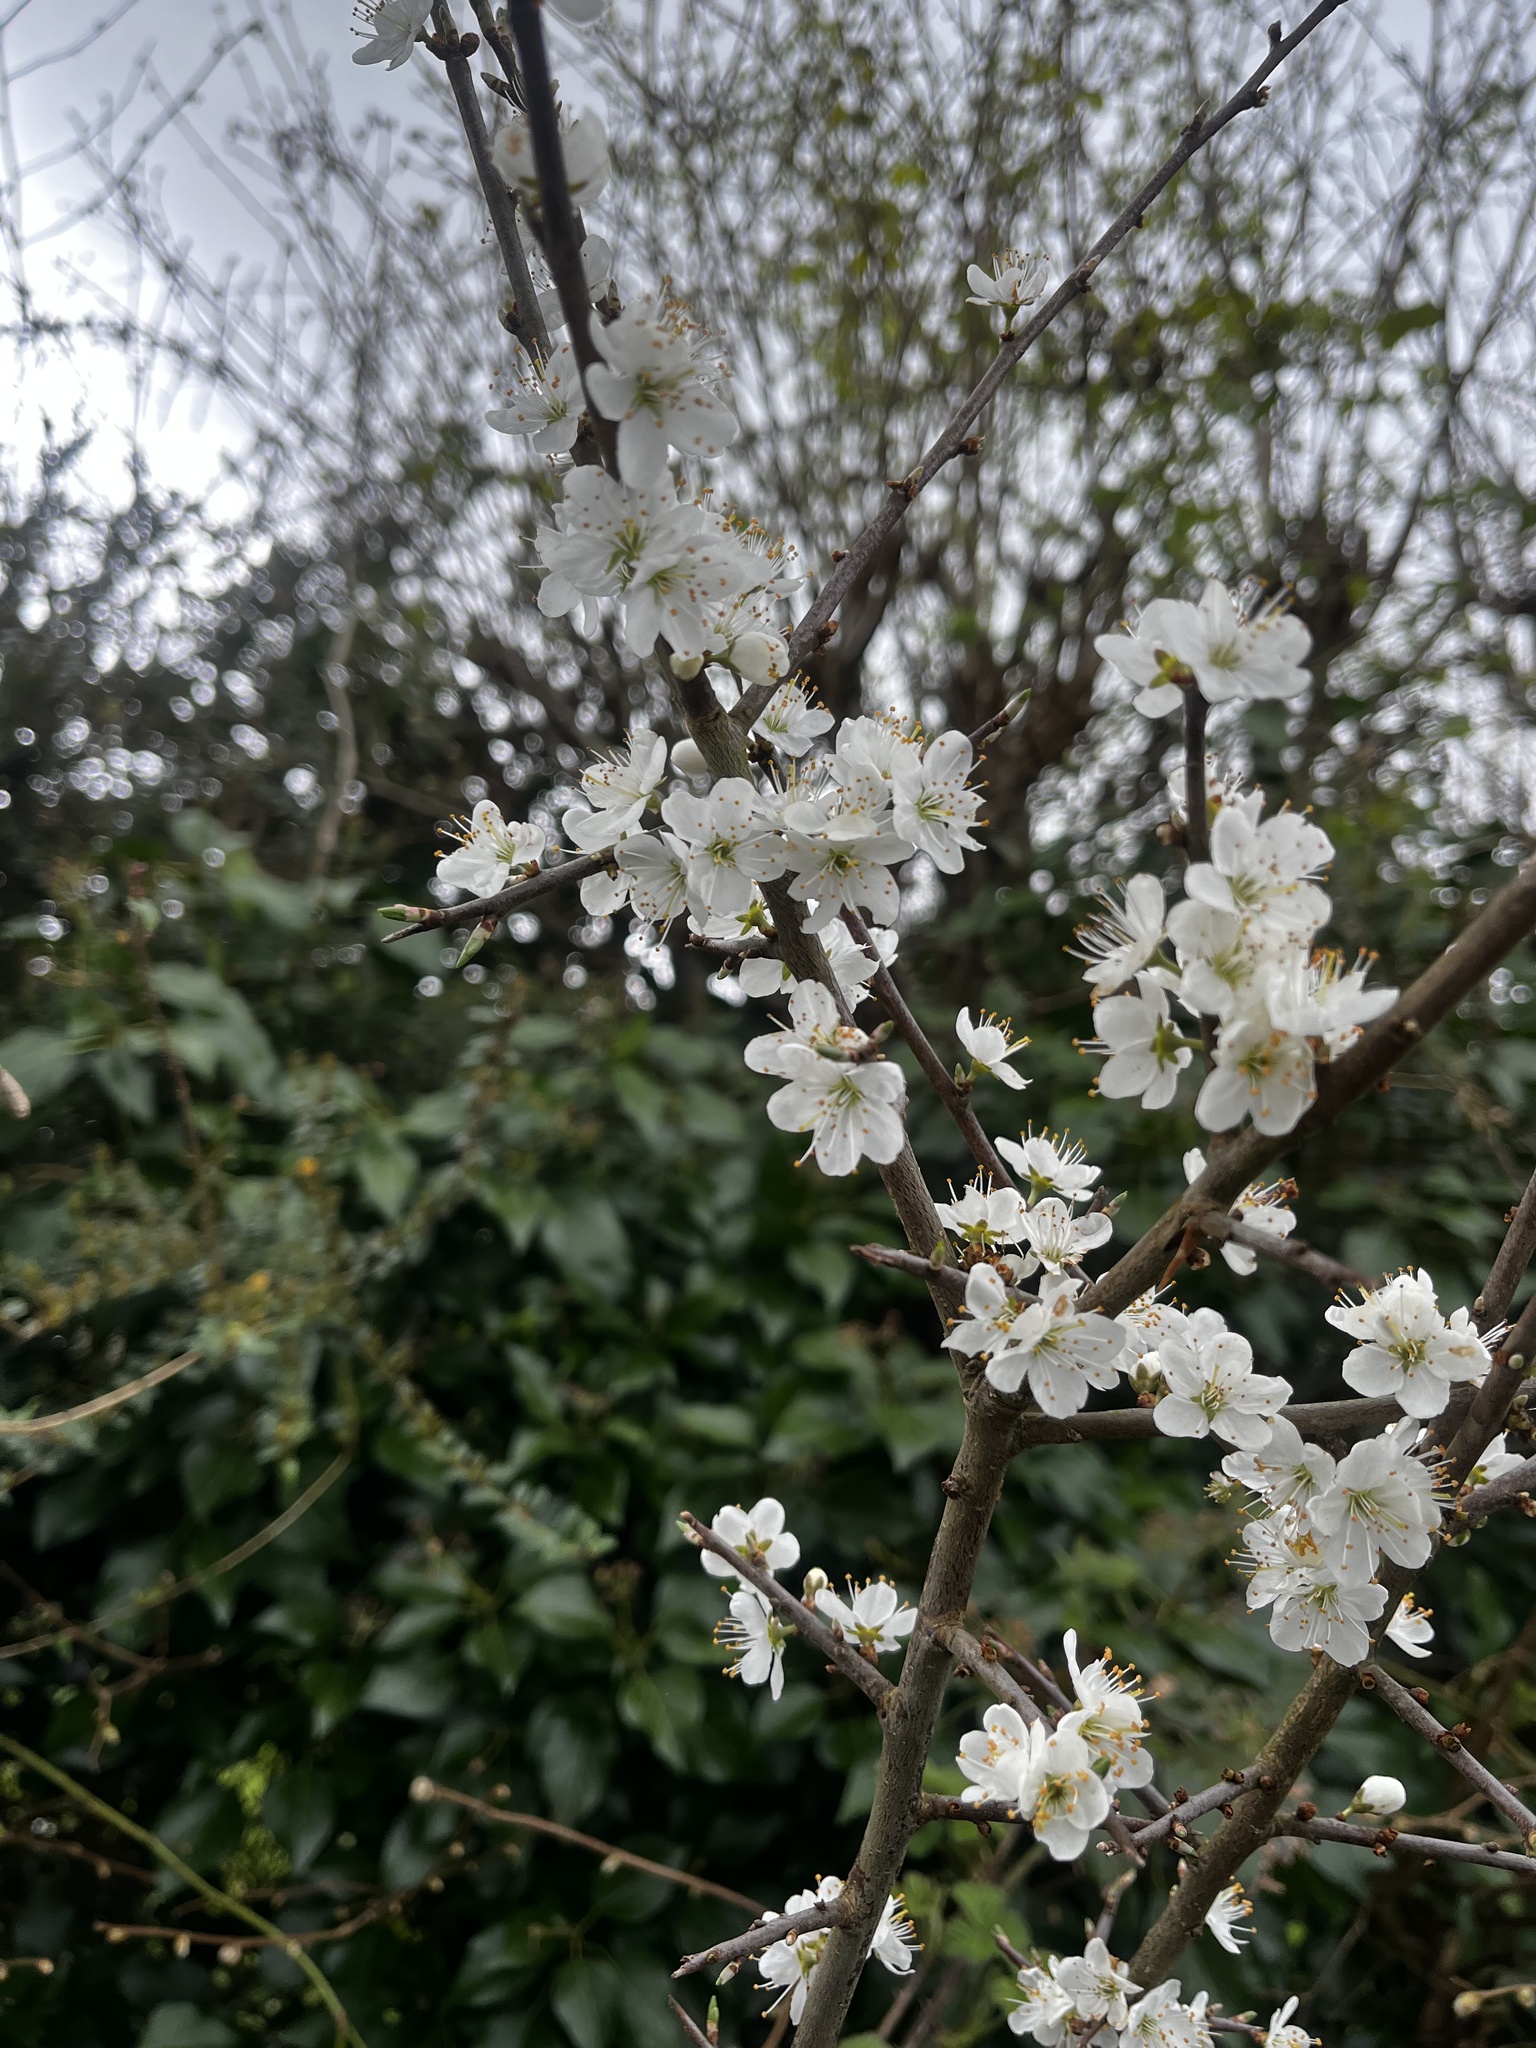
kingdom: Plantae
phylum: Tracheophyta
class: Magnoliopsida
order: Rosales
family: Rosaceae
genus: Prunus
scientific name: Prunus spinosa
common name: Blackthorn
